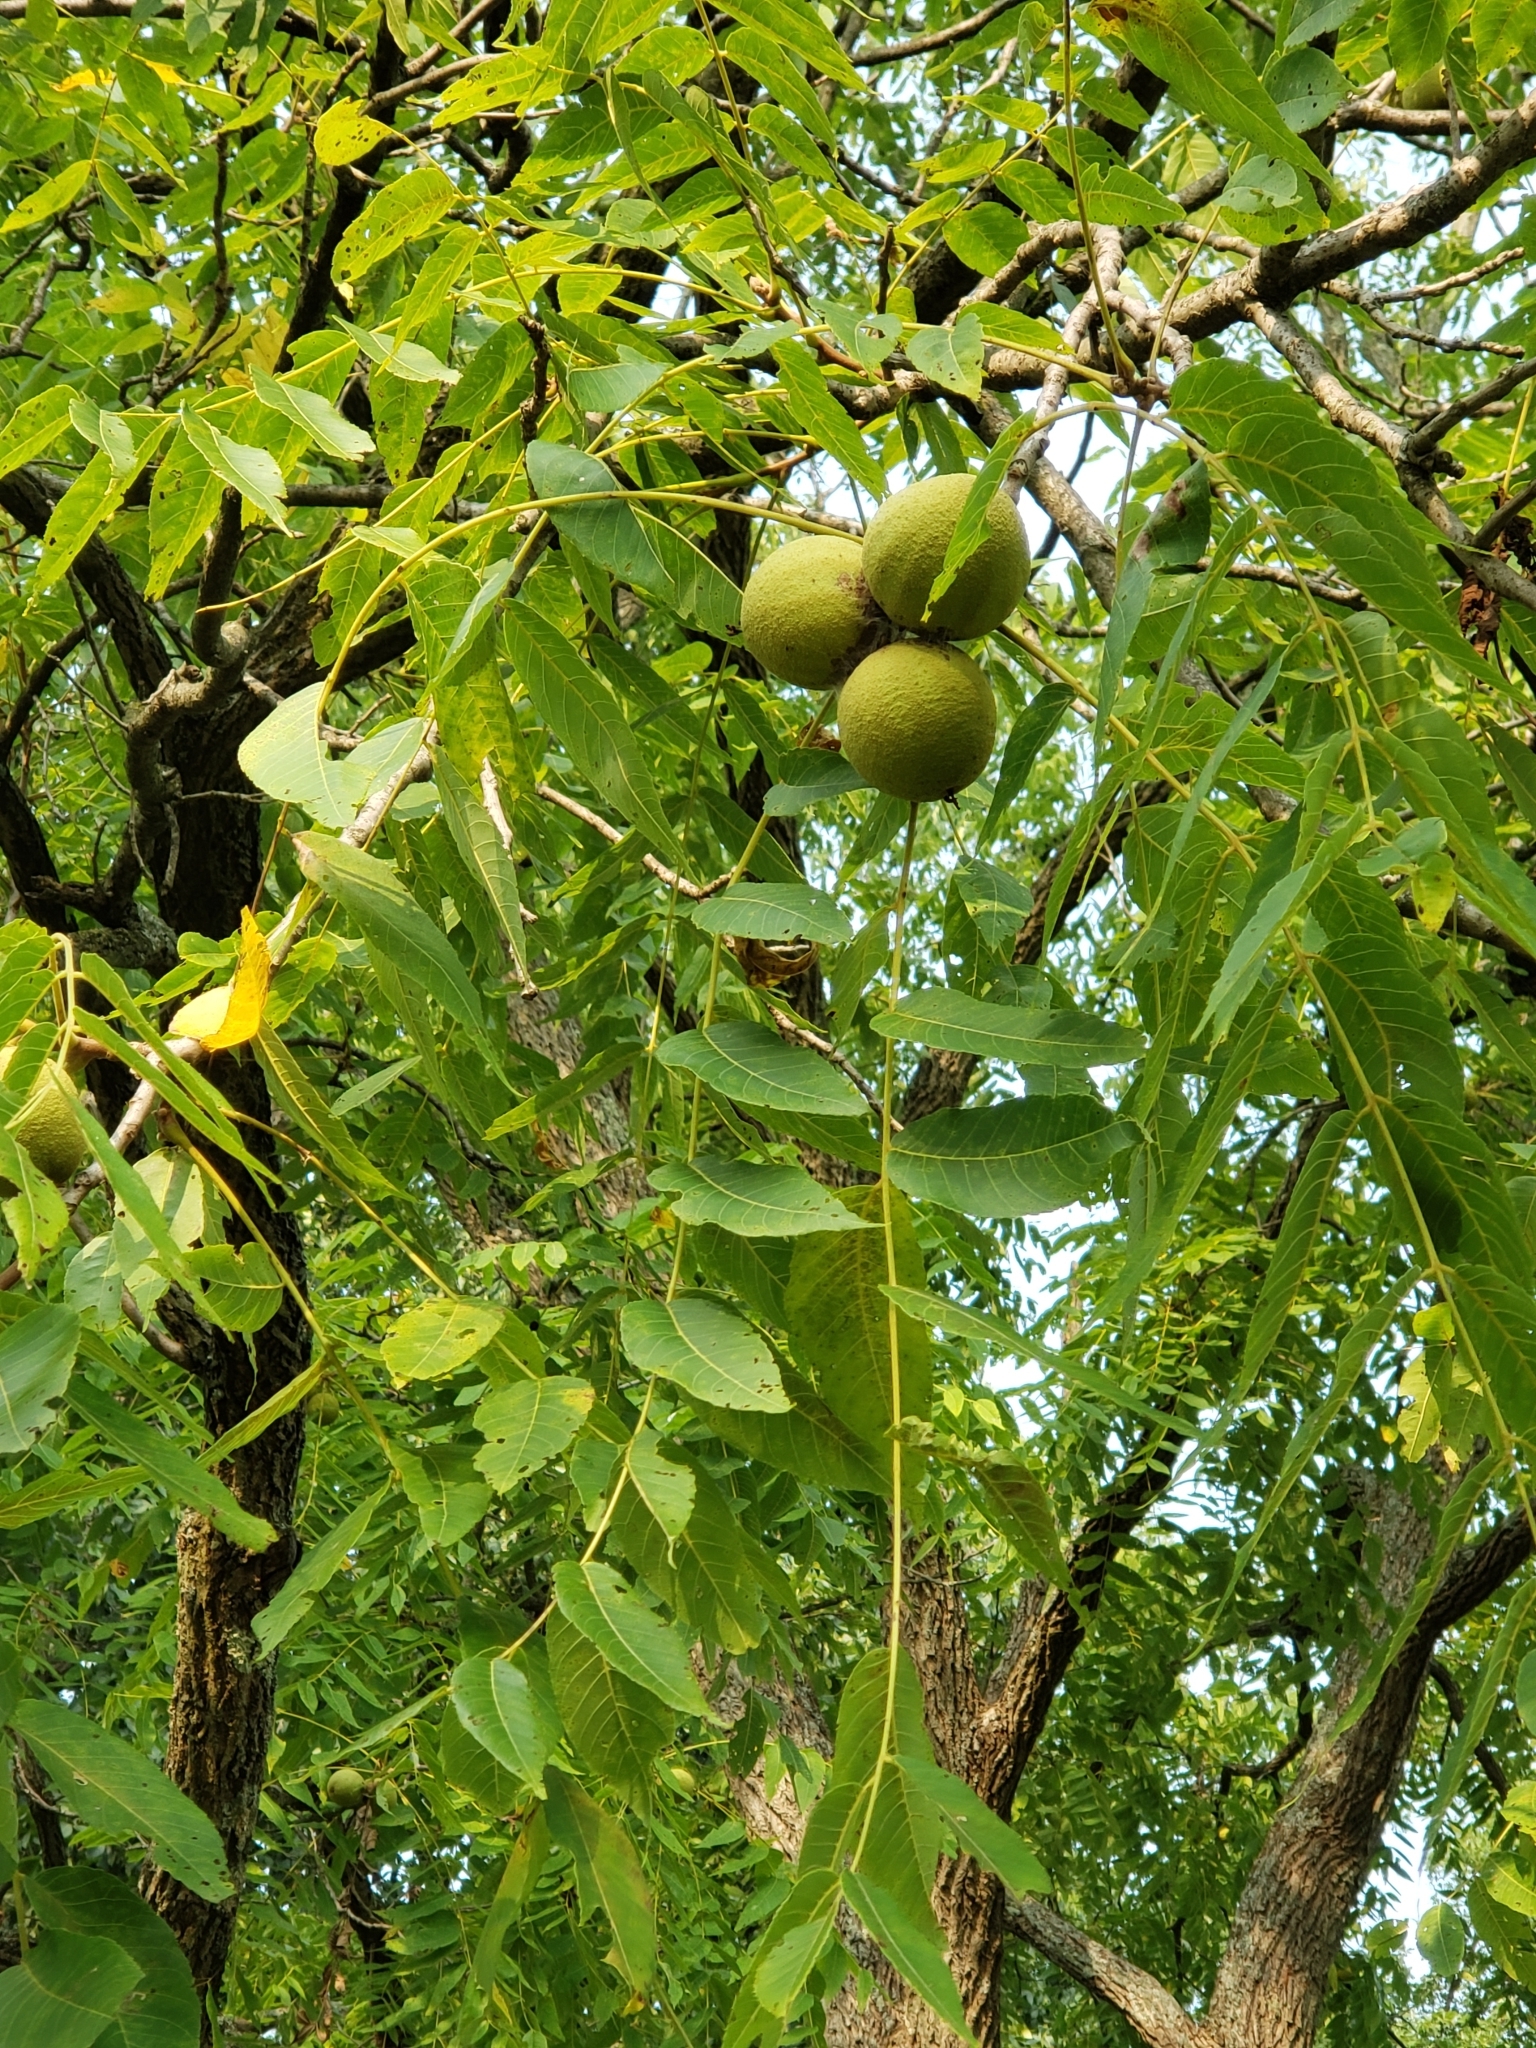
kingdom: Plantae
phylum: Tracheophyta
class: Magnoliopsida
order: Fagales
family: Juglandaceae
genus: Juglans
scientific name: Juglans nigra
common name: Black walnut
